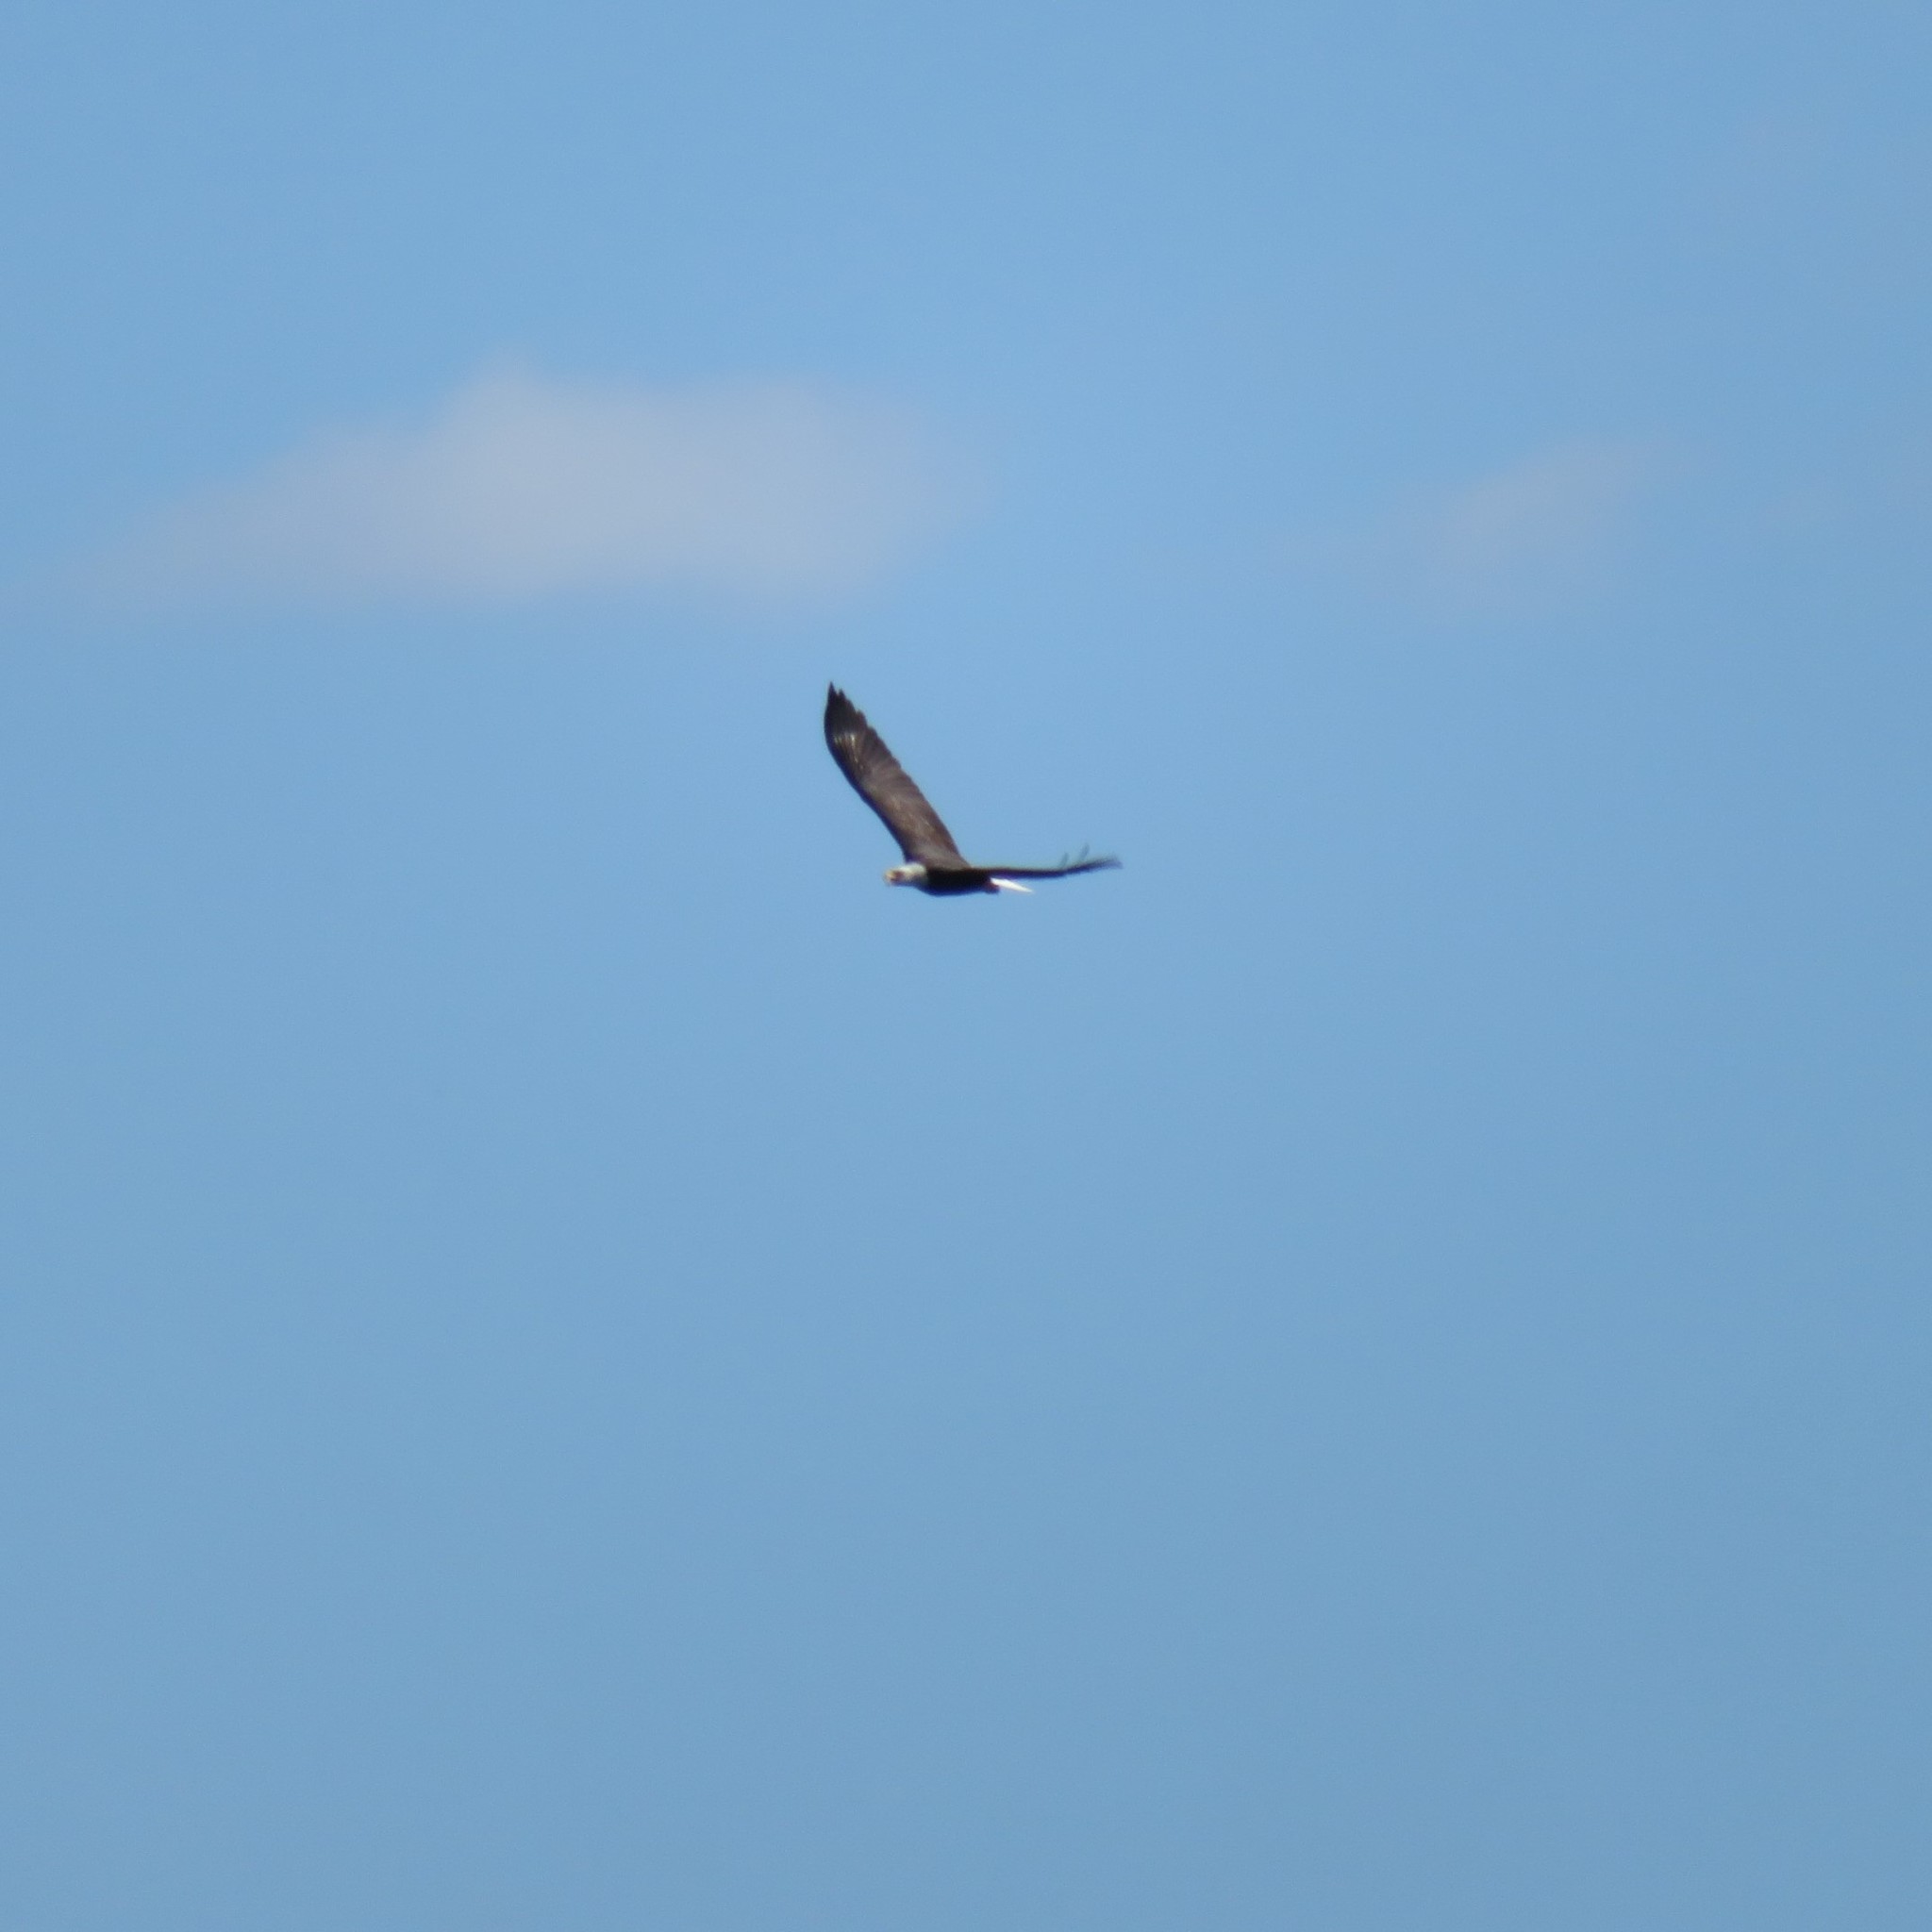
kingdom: Animalia
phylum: Chordata
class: Aves
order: Accipitriformes
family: Accipitridae
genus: Haliaeetus
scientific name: Haliaeetus leucocephalus
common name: Bald eagle
